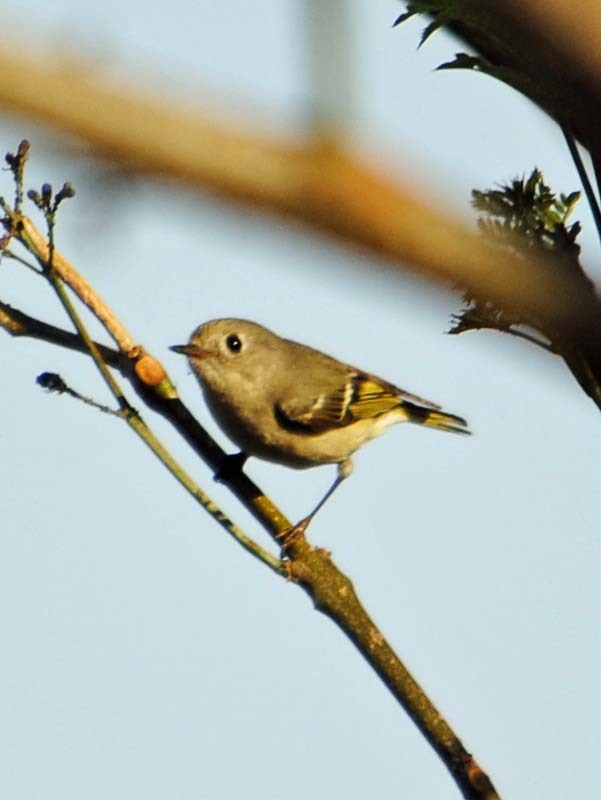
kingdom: Animalia
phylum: Chordata
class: Aves
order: Passeriformes
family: Regulidae
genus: Regulus
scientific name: Regulus calendula
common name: Ruby-crowned kinglet
